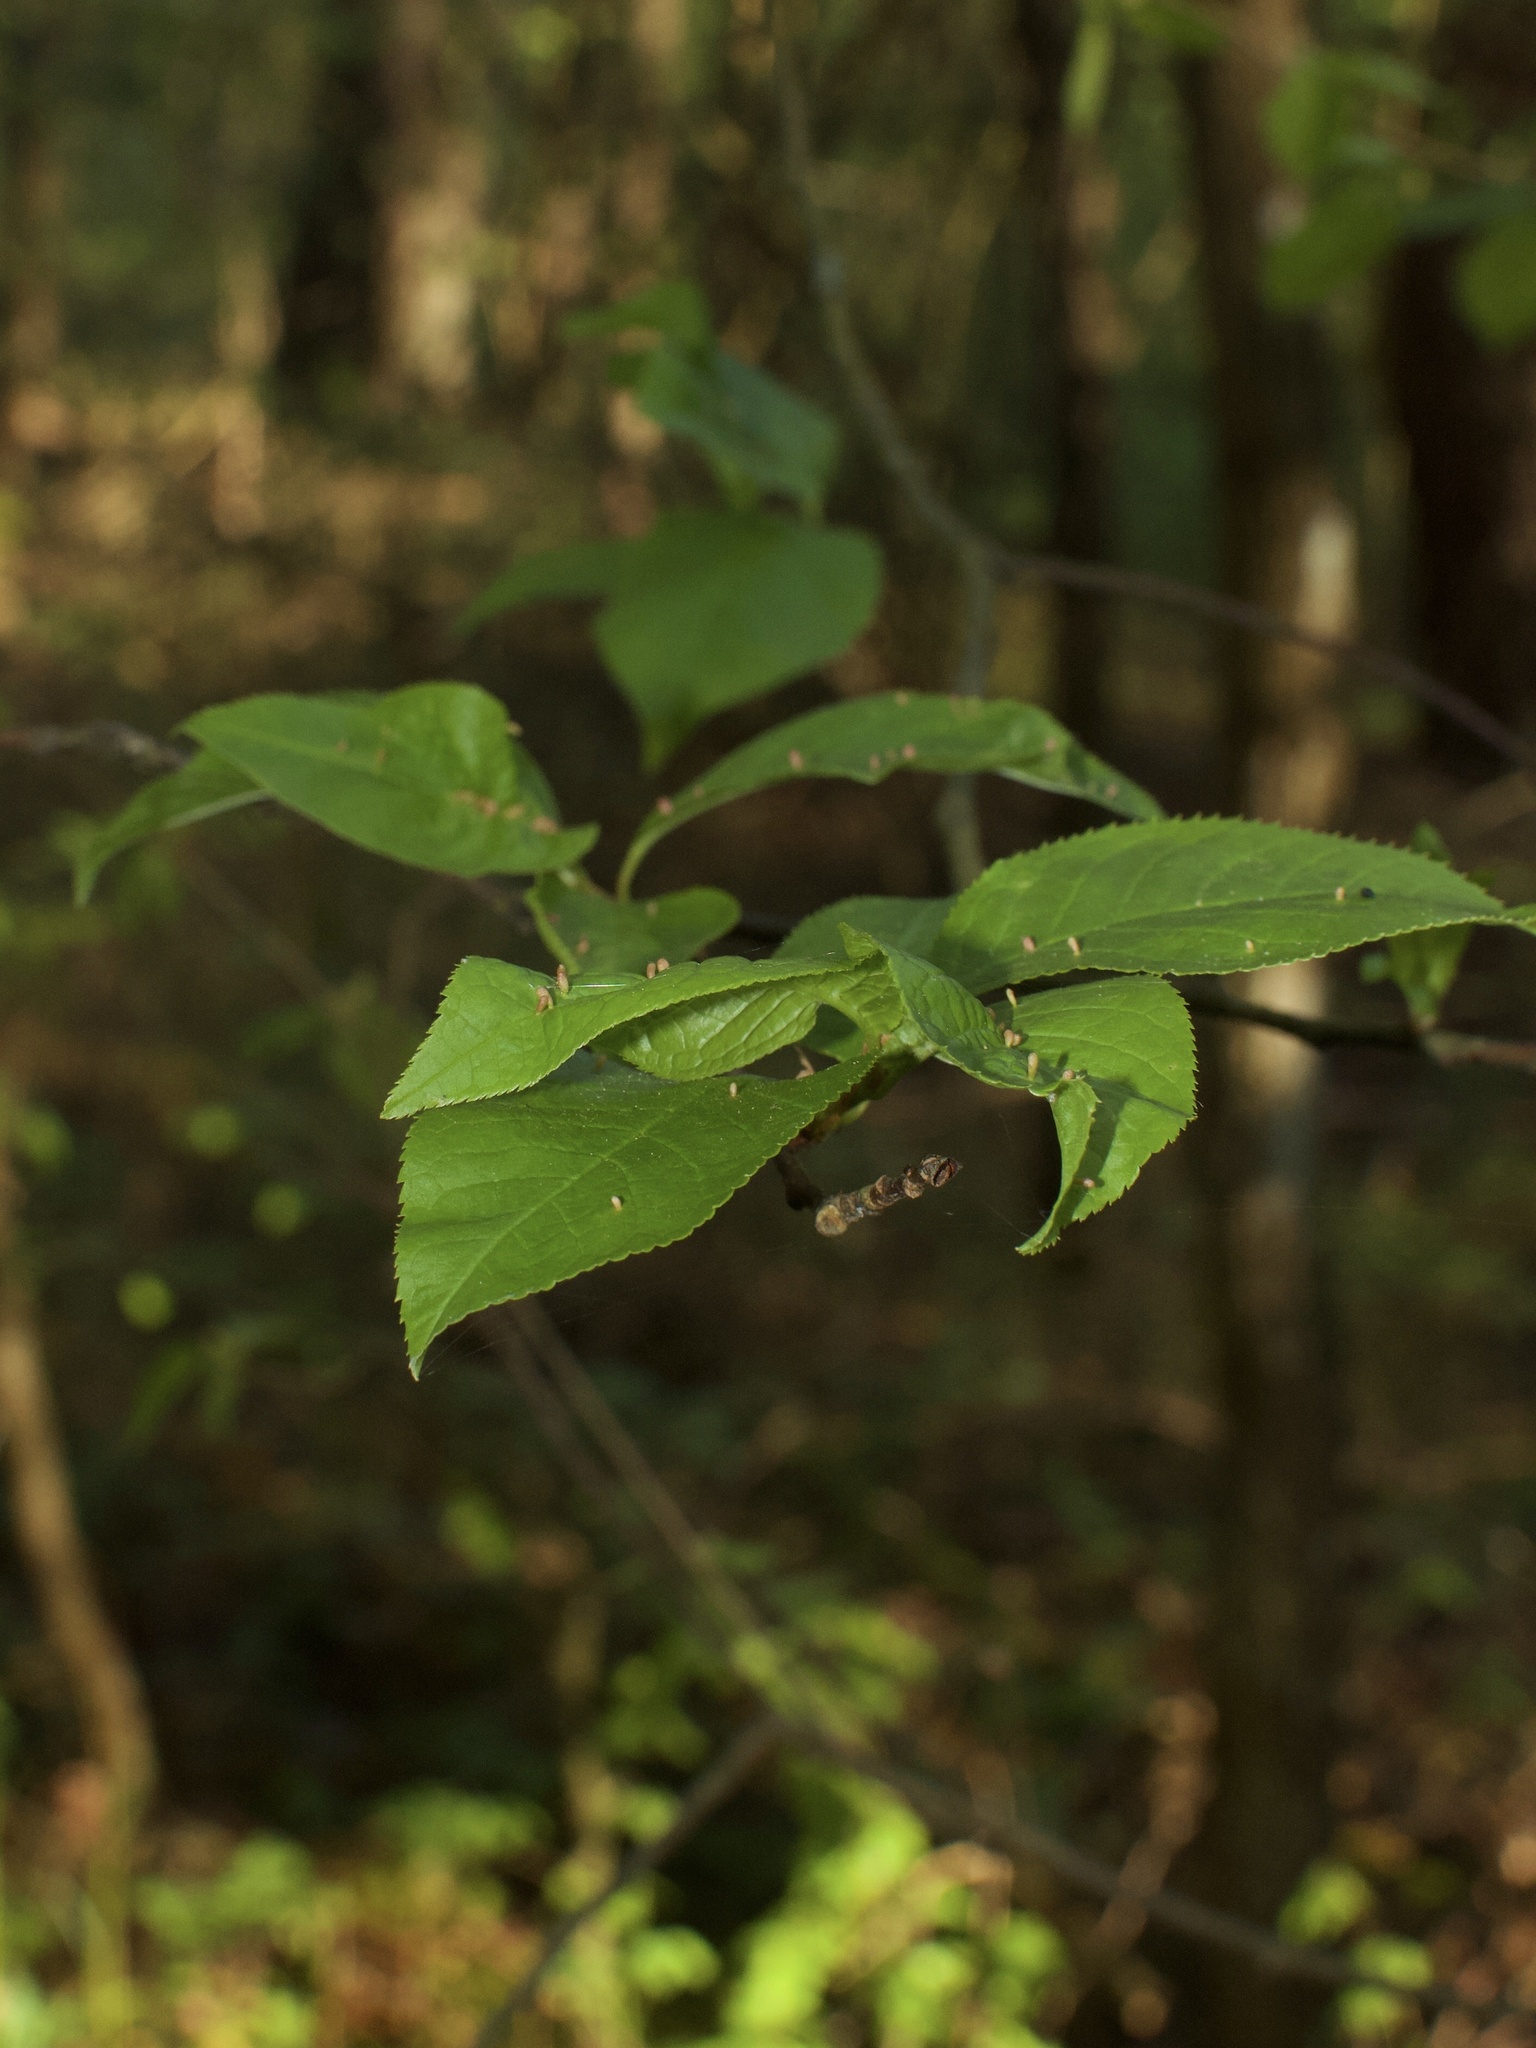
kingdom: Animalia
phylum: Arthropoda
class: Arachnida
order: Trombidiformes
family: Eriophyidae
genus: Phyllocoptes
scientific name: Phyllocoptes eupadi
